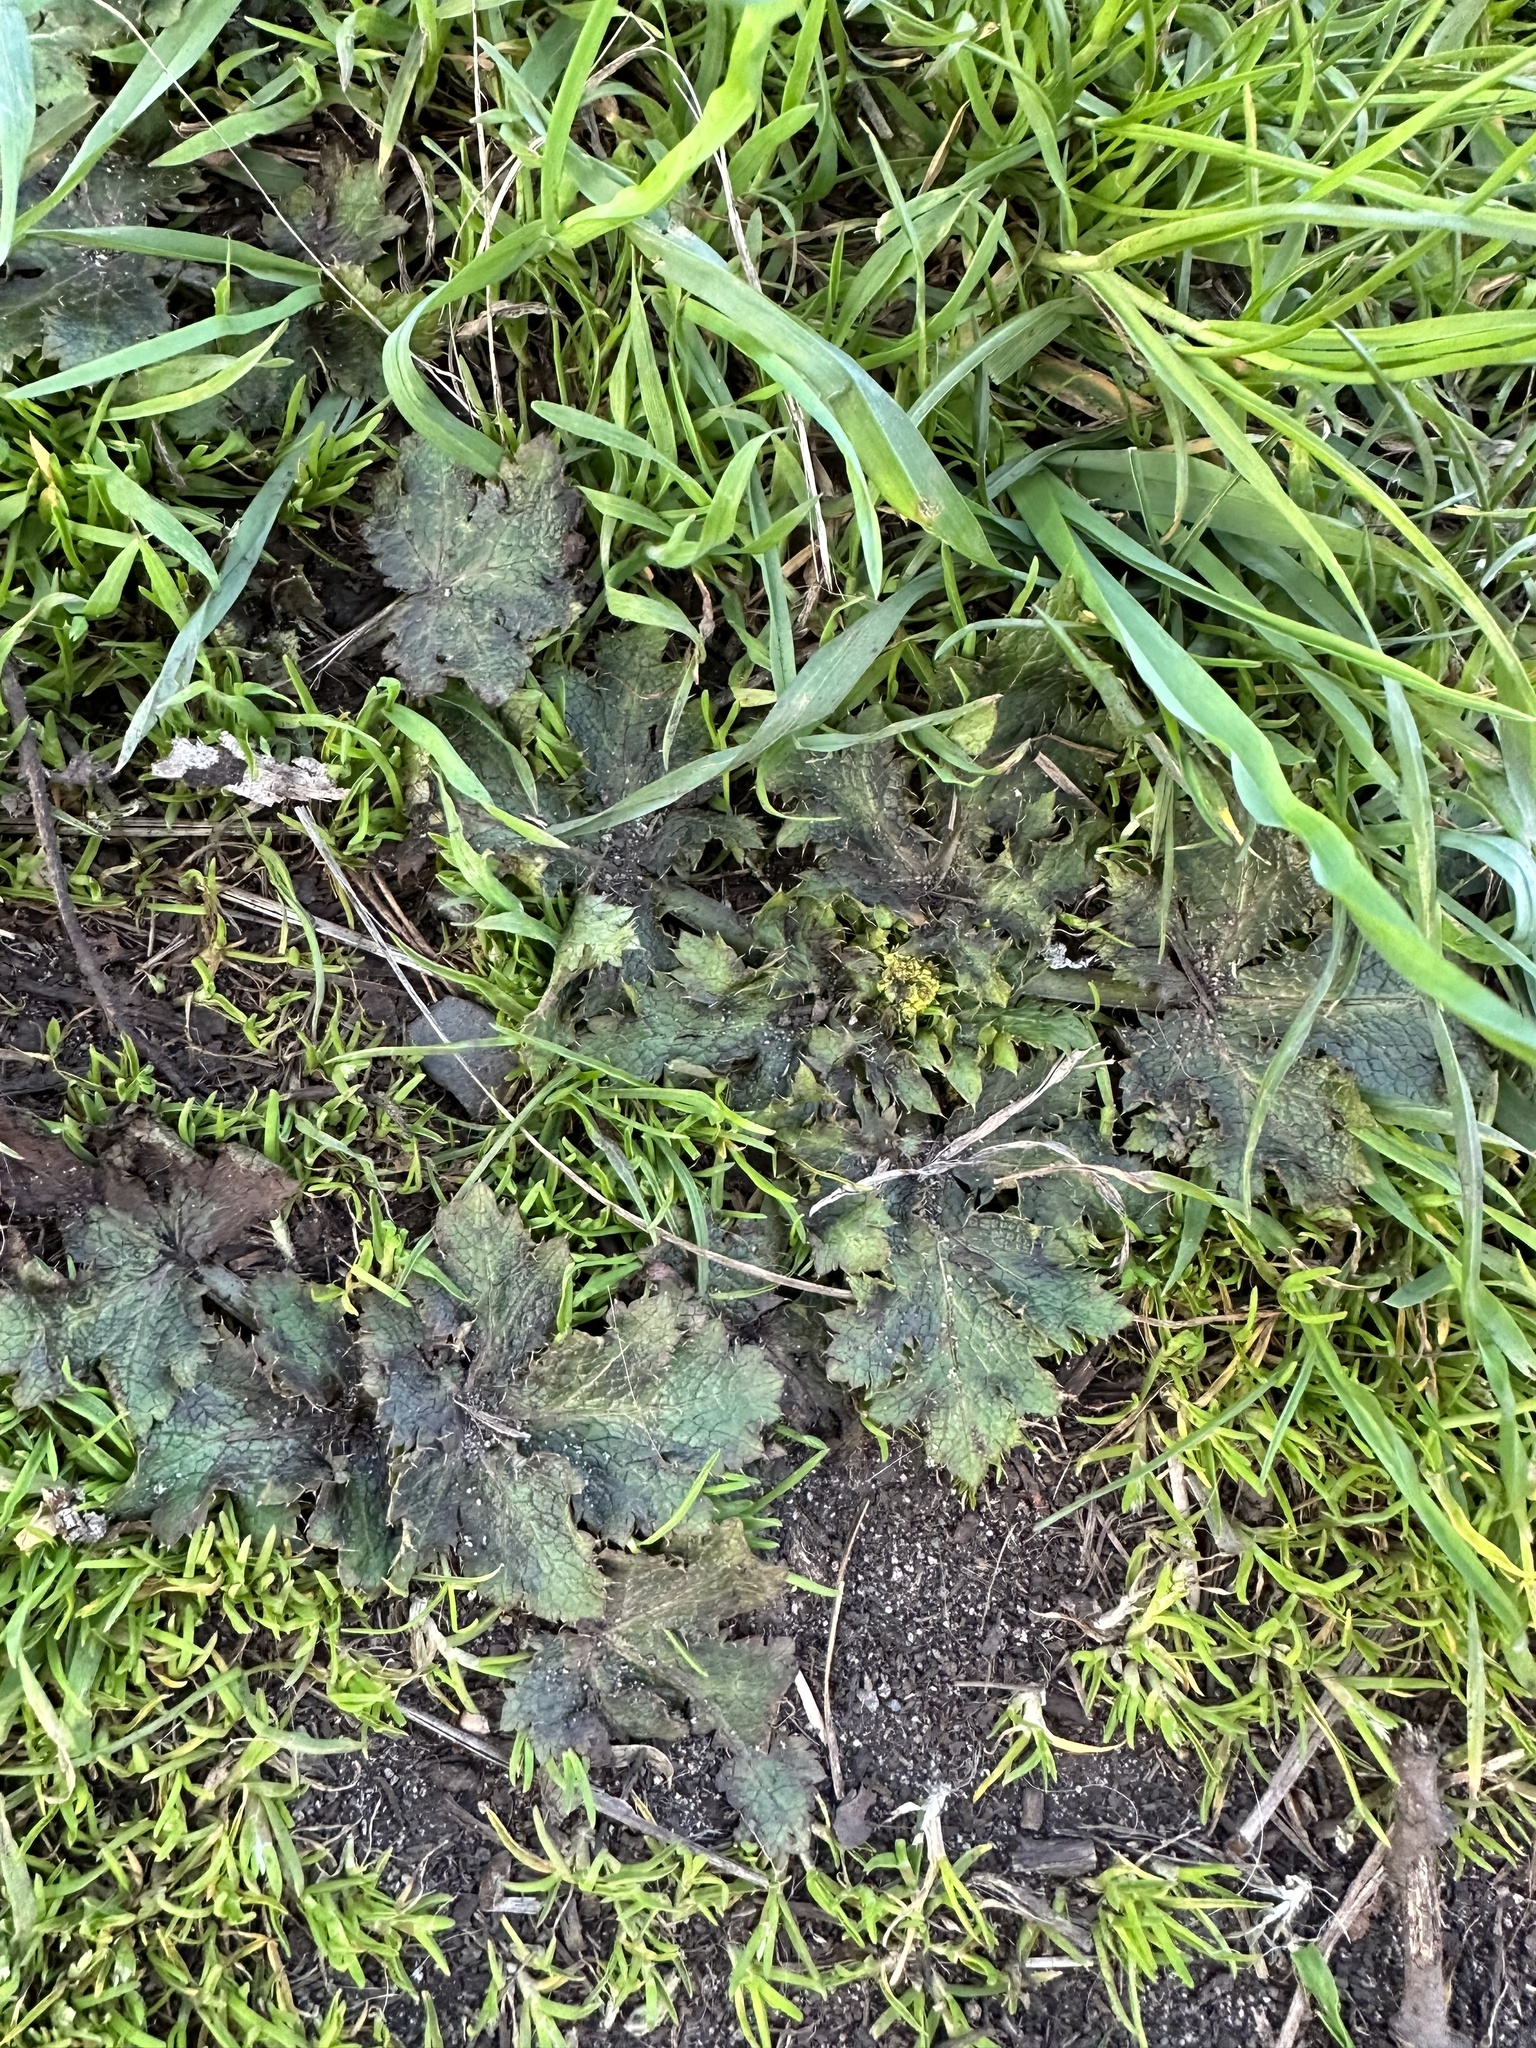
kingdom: Plantae
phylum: Tracheophyta
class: Magnoliopsida
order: Apiales
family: Apiaceae
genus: Sanicula
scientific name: Sanicula crassicaulis
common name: Western snakeroot
